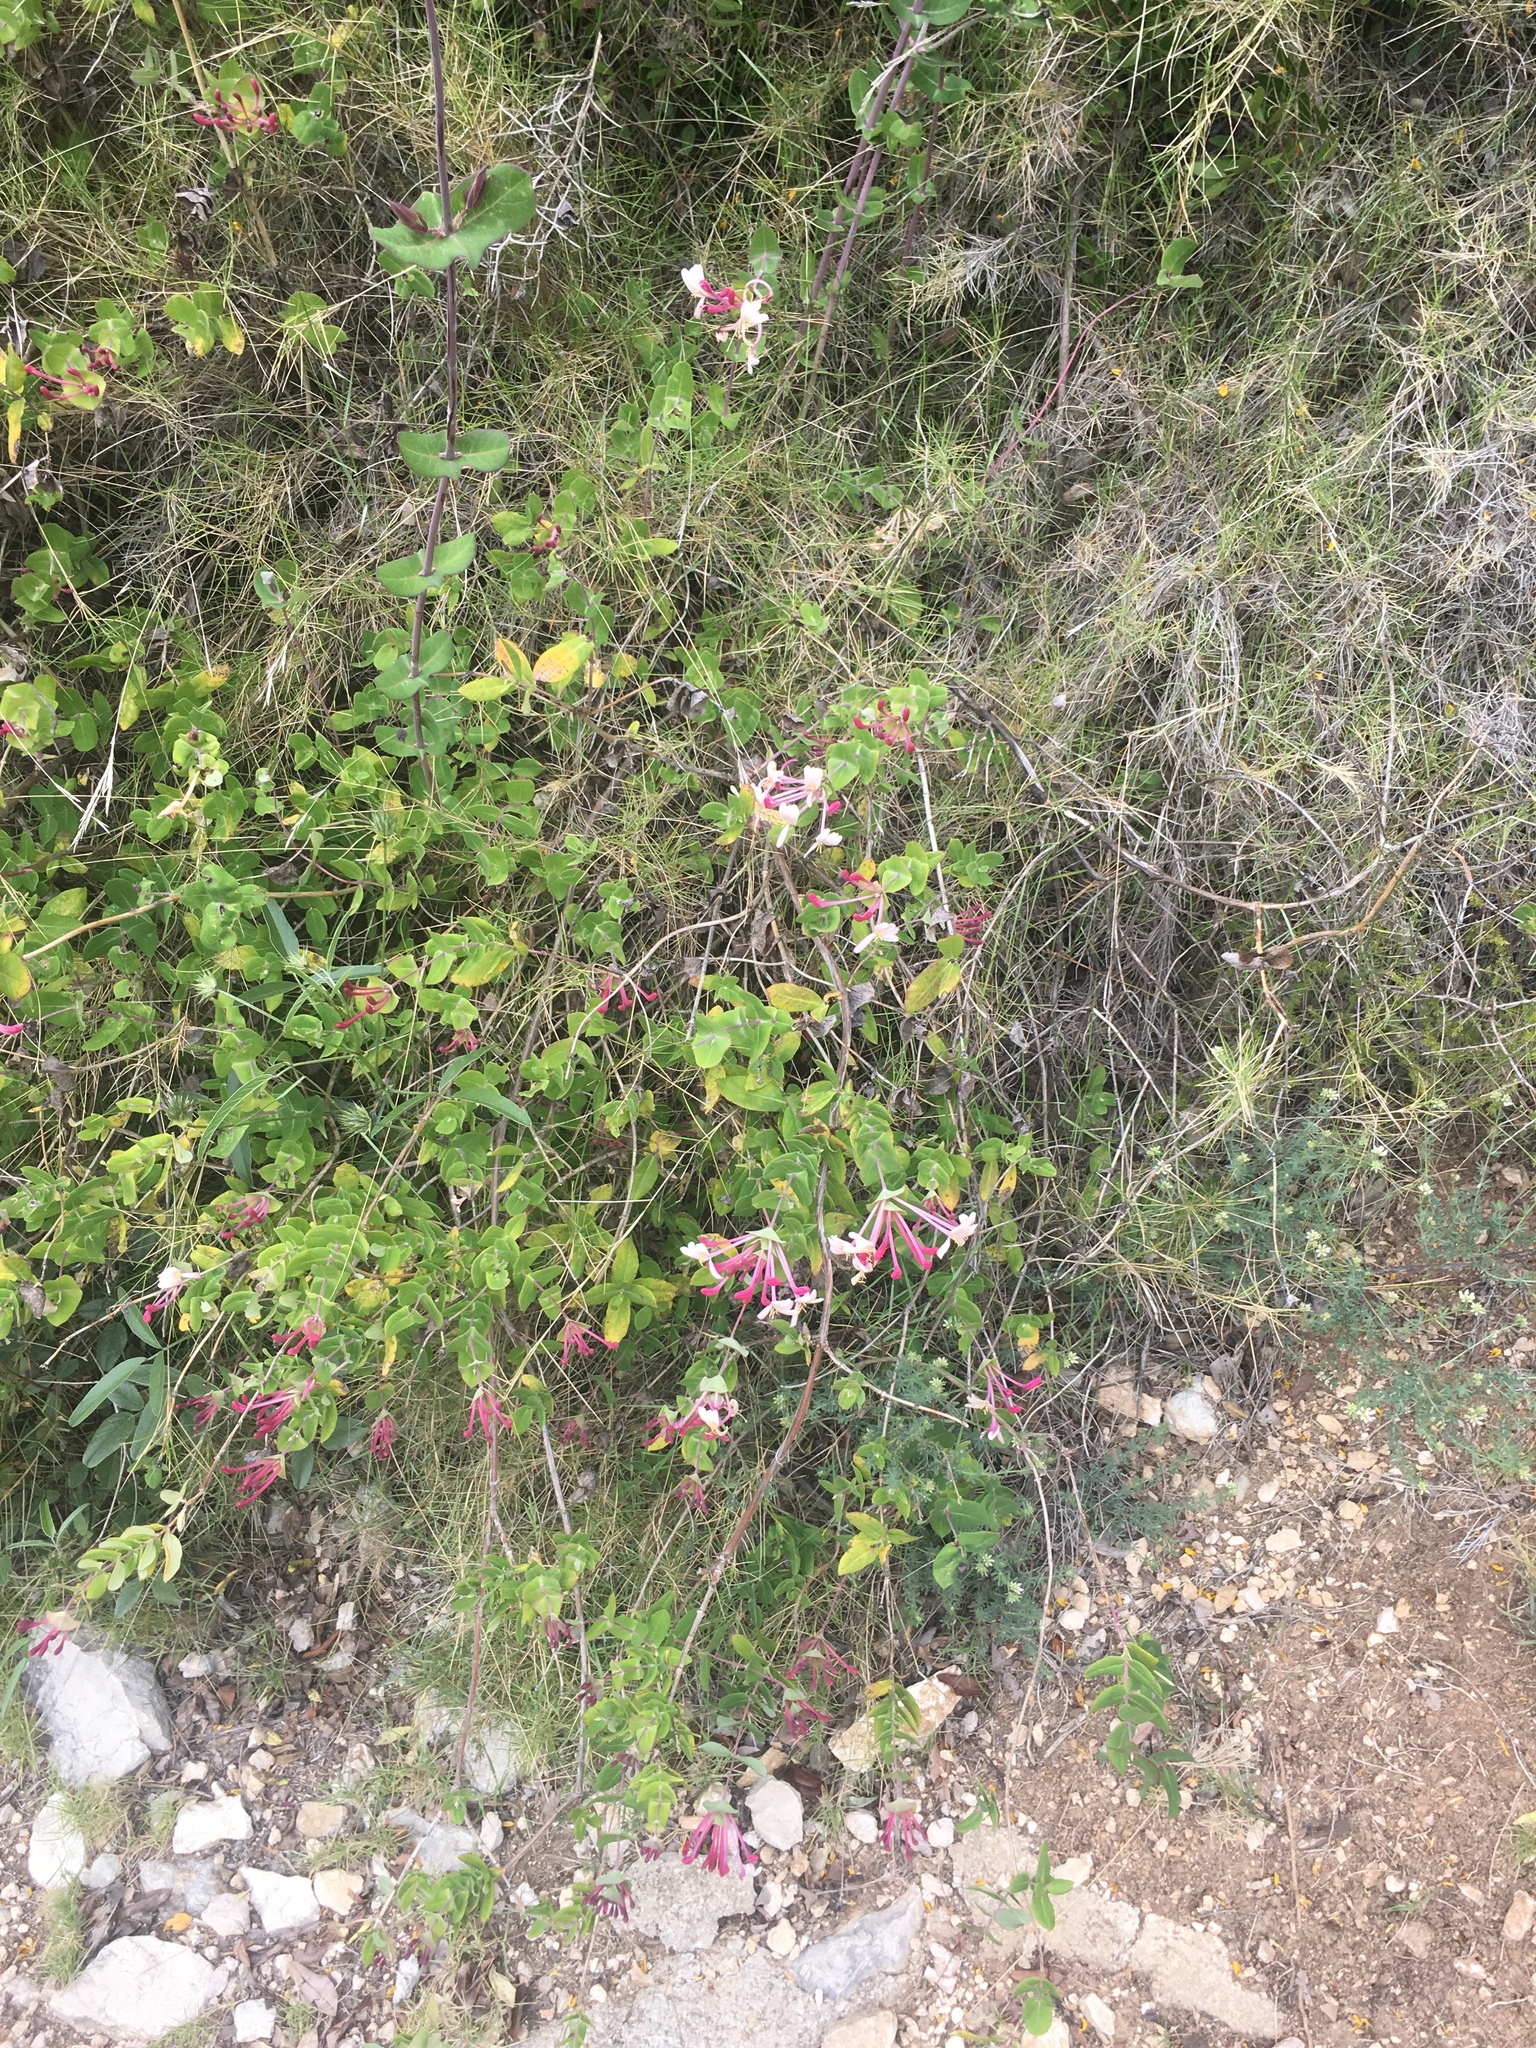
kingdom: Plantae
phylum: Tracheophyta
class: Magnoliopsida
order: Dipsacales
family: Caprifoliaceae
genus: Lonicera
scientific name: Lonicera implexa
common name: Minorca honeysuckle
